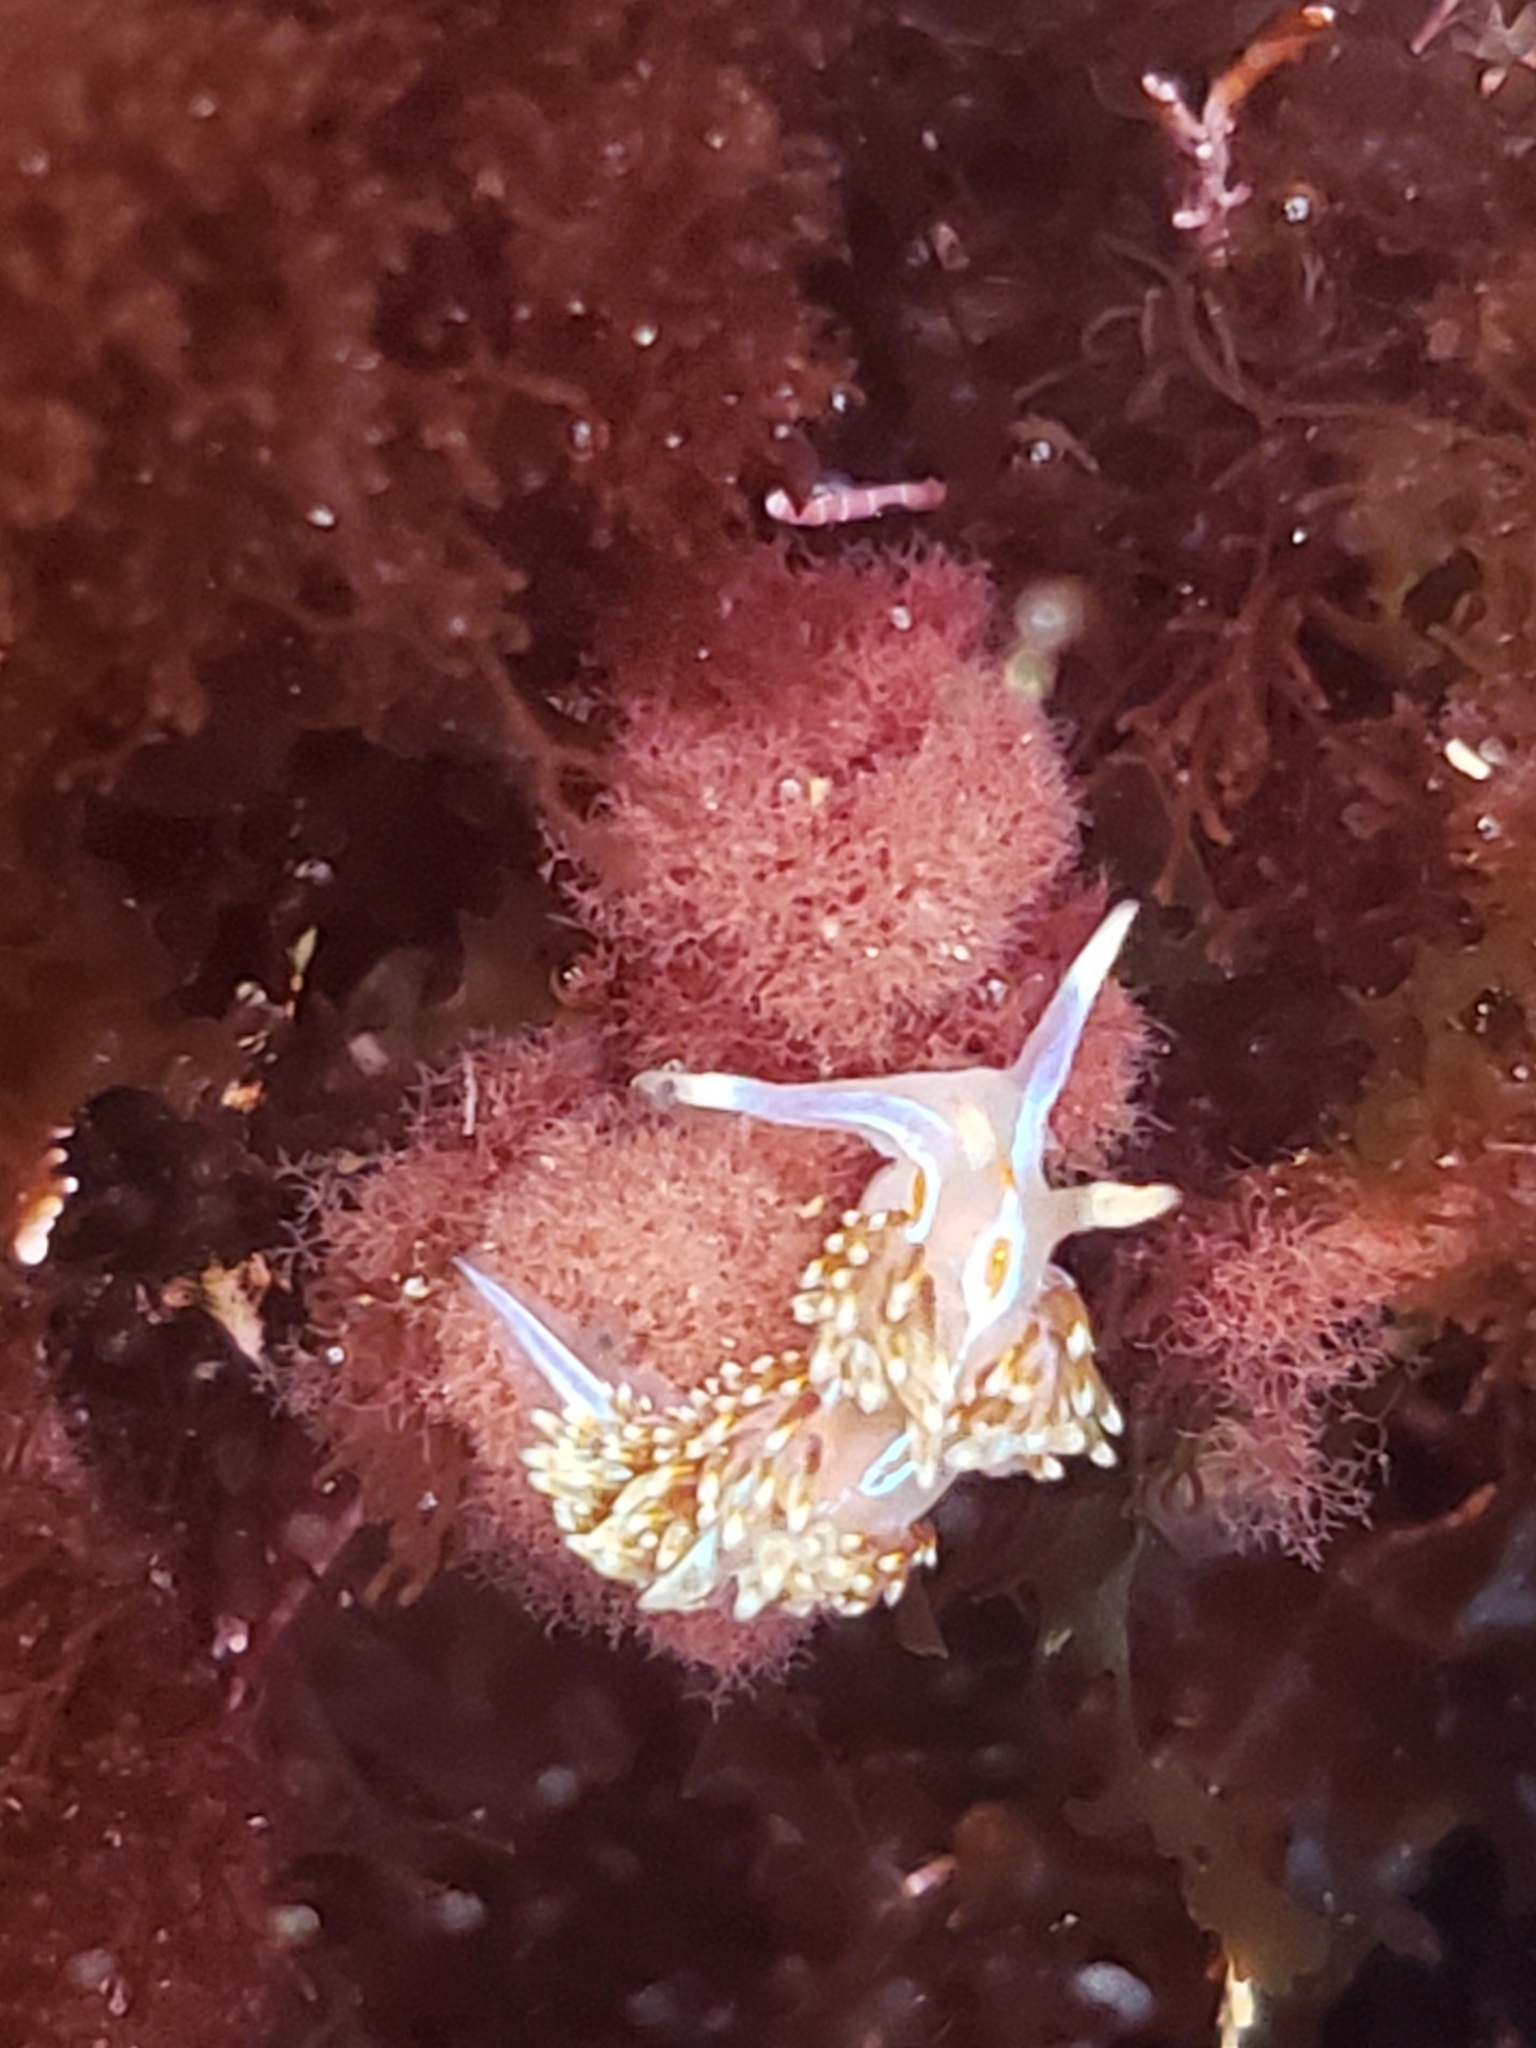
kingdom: Animalia
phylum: Mollusca
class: Gastropoda
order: Nudibranchia
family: Myrrhinidae
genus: Hermissenda
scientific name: Hermissenda opalescens
